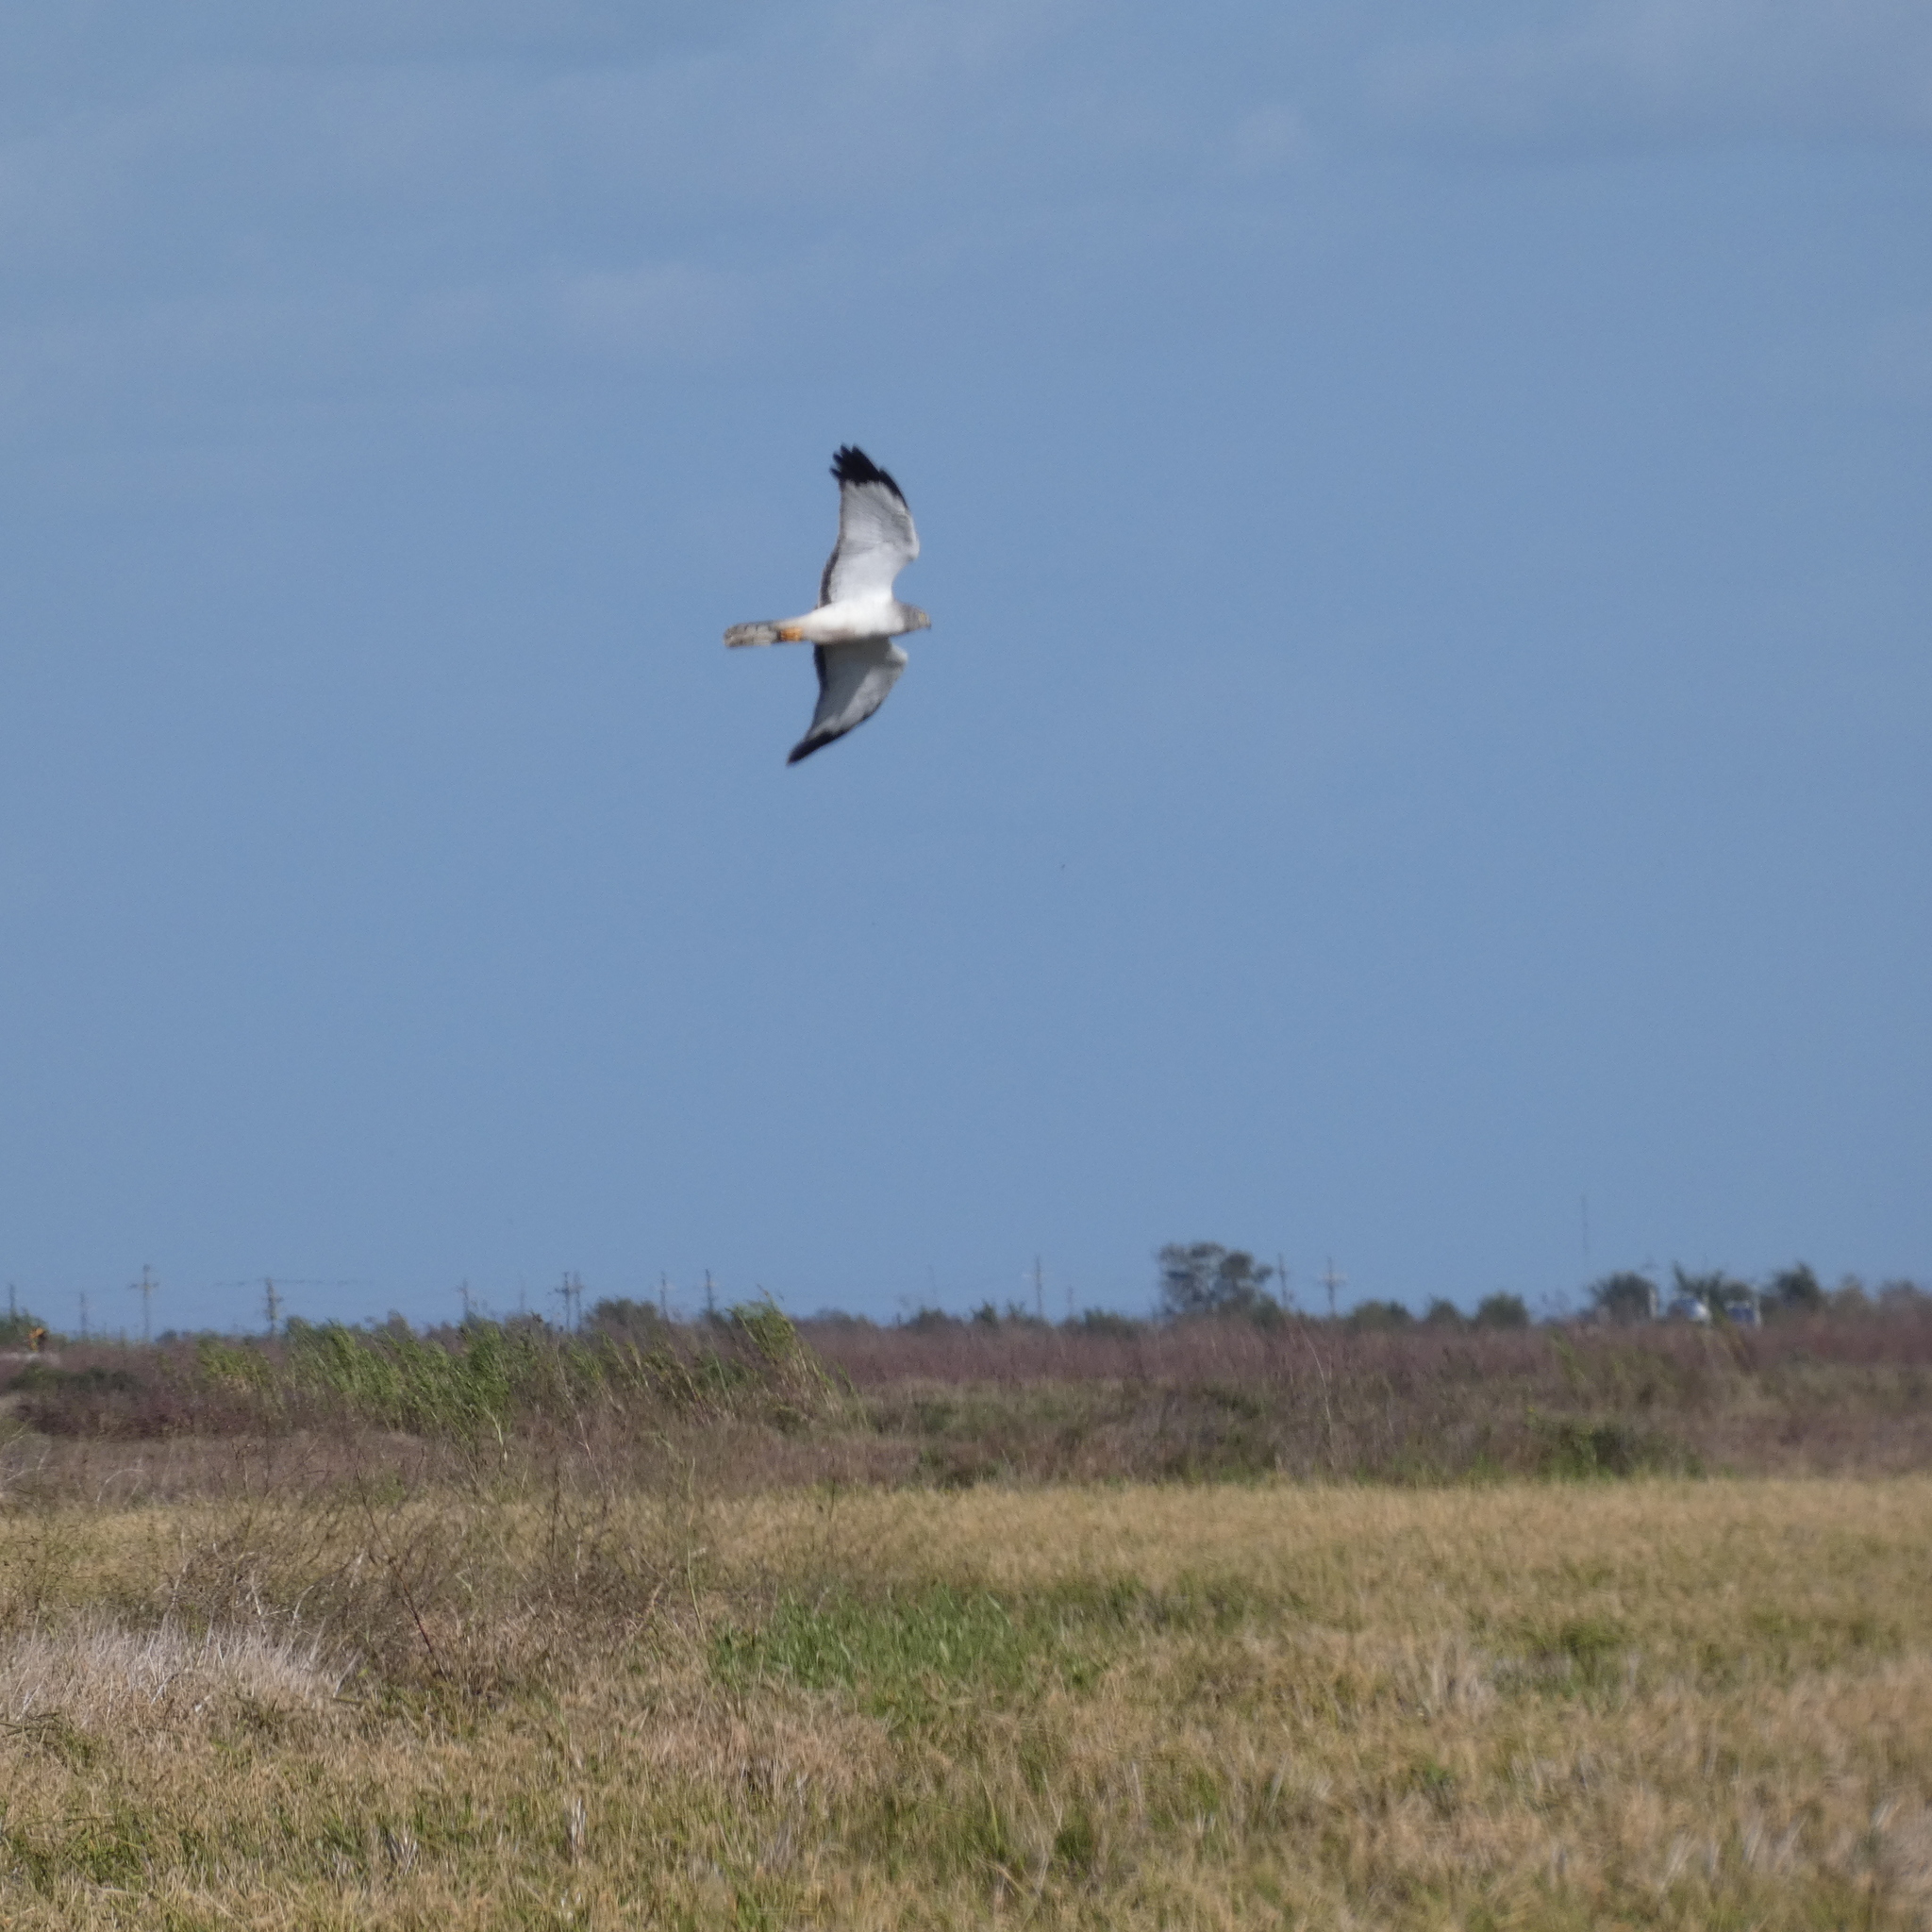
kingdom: Animalia
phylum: Chordata
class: Aves
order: Accipitriformes
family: Accipitridae
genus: Circus
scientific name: Circus cyaneus
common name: Hen harrier
